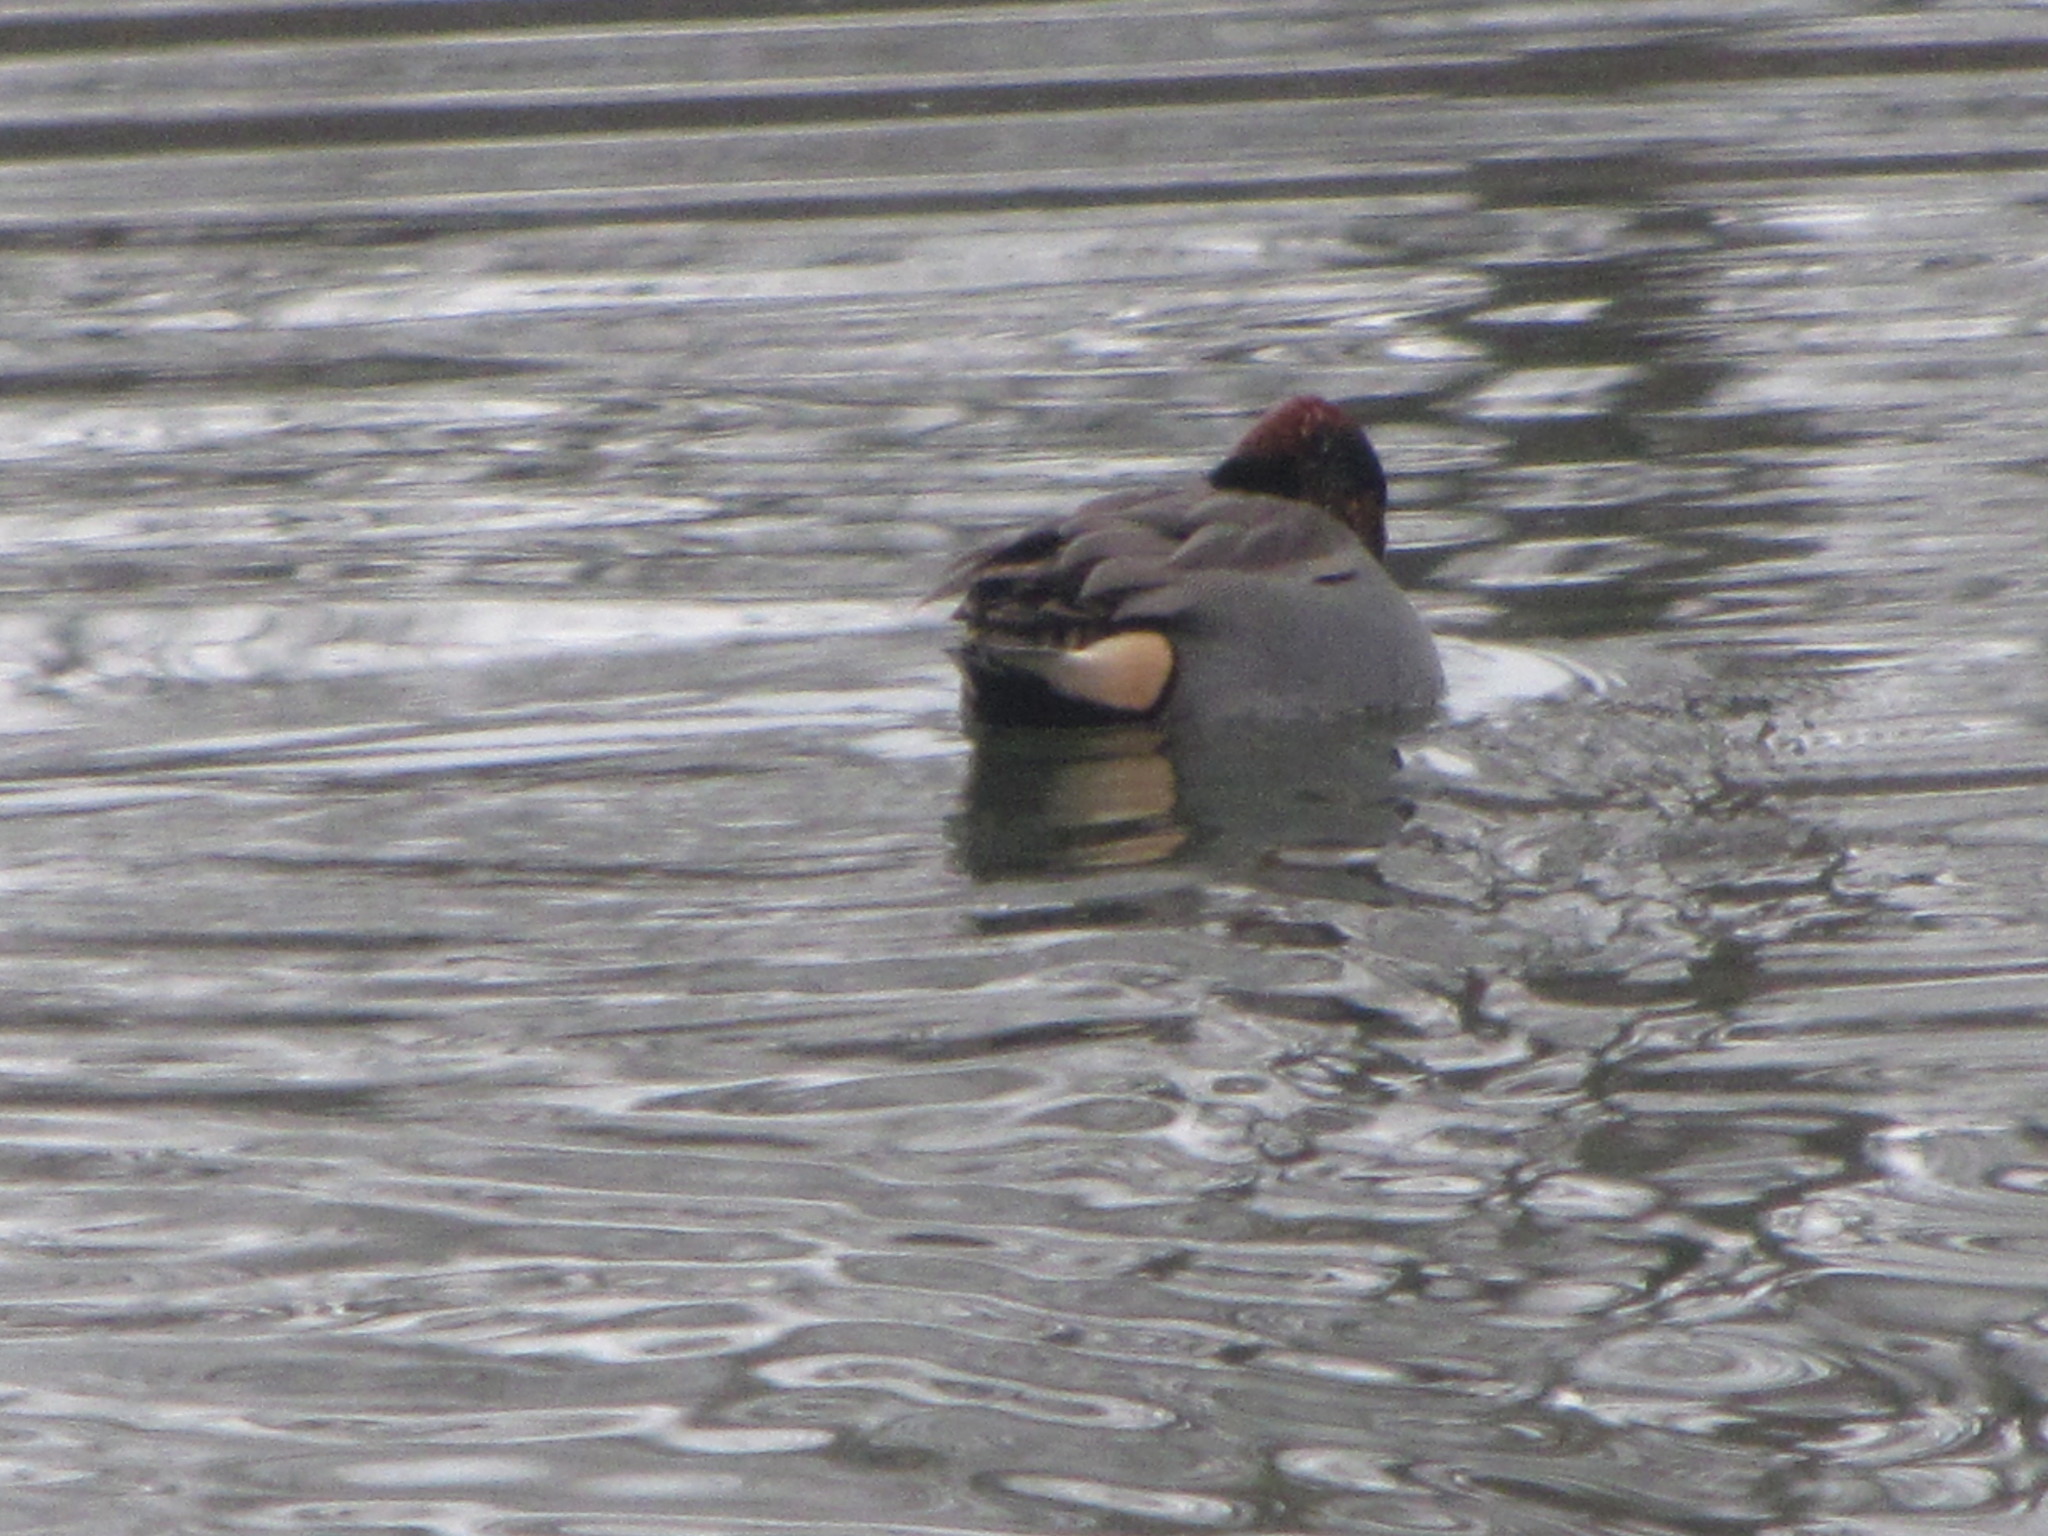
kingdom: Animalia
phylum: Chordata
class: Aves
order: Anseriformes
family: Anatidae
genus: Anas
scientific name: Anas crecca
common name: Eurasian teal
